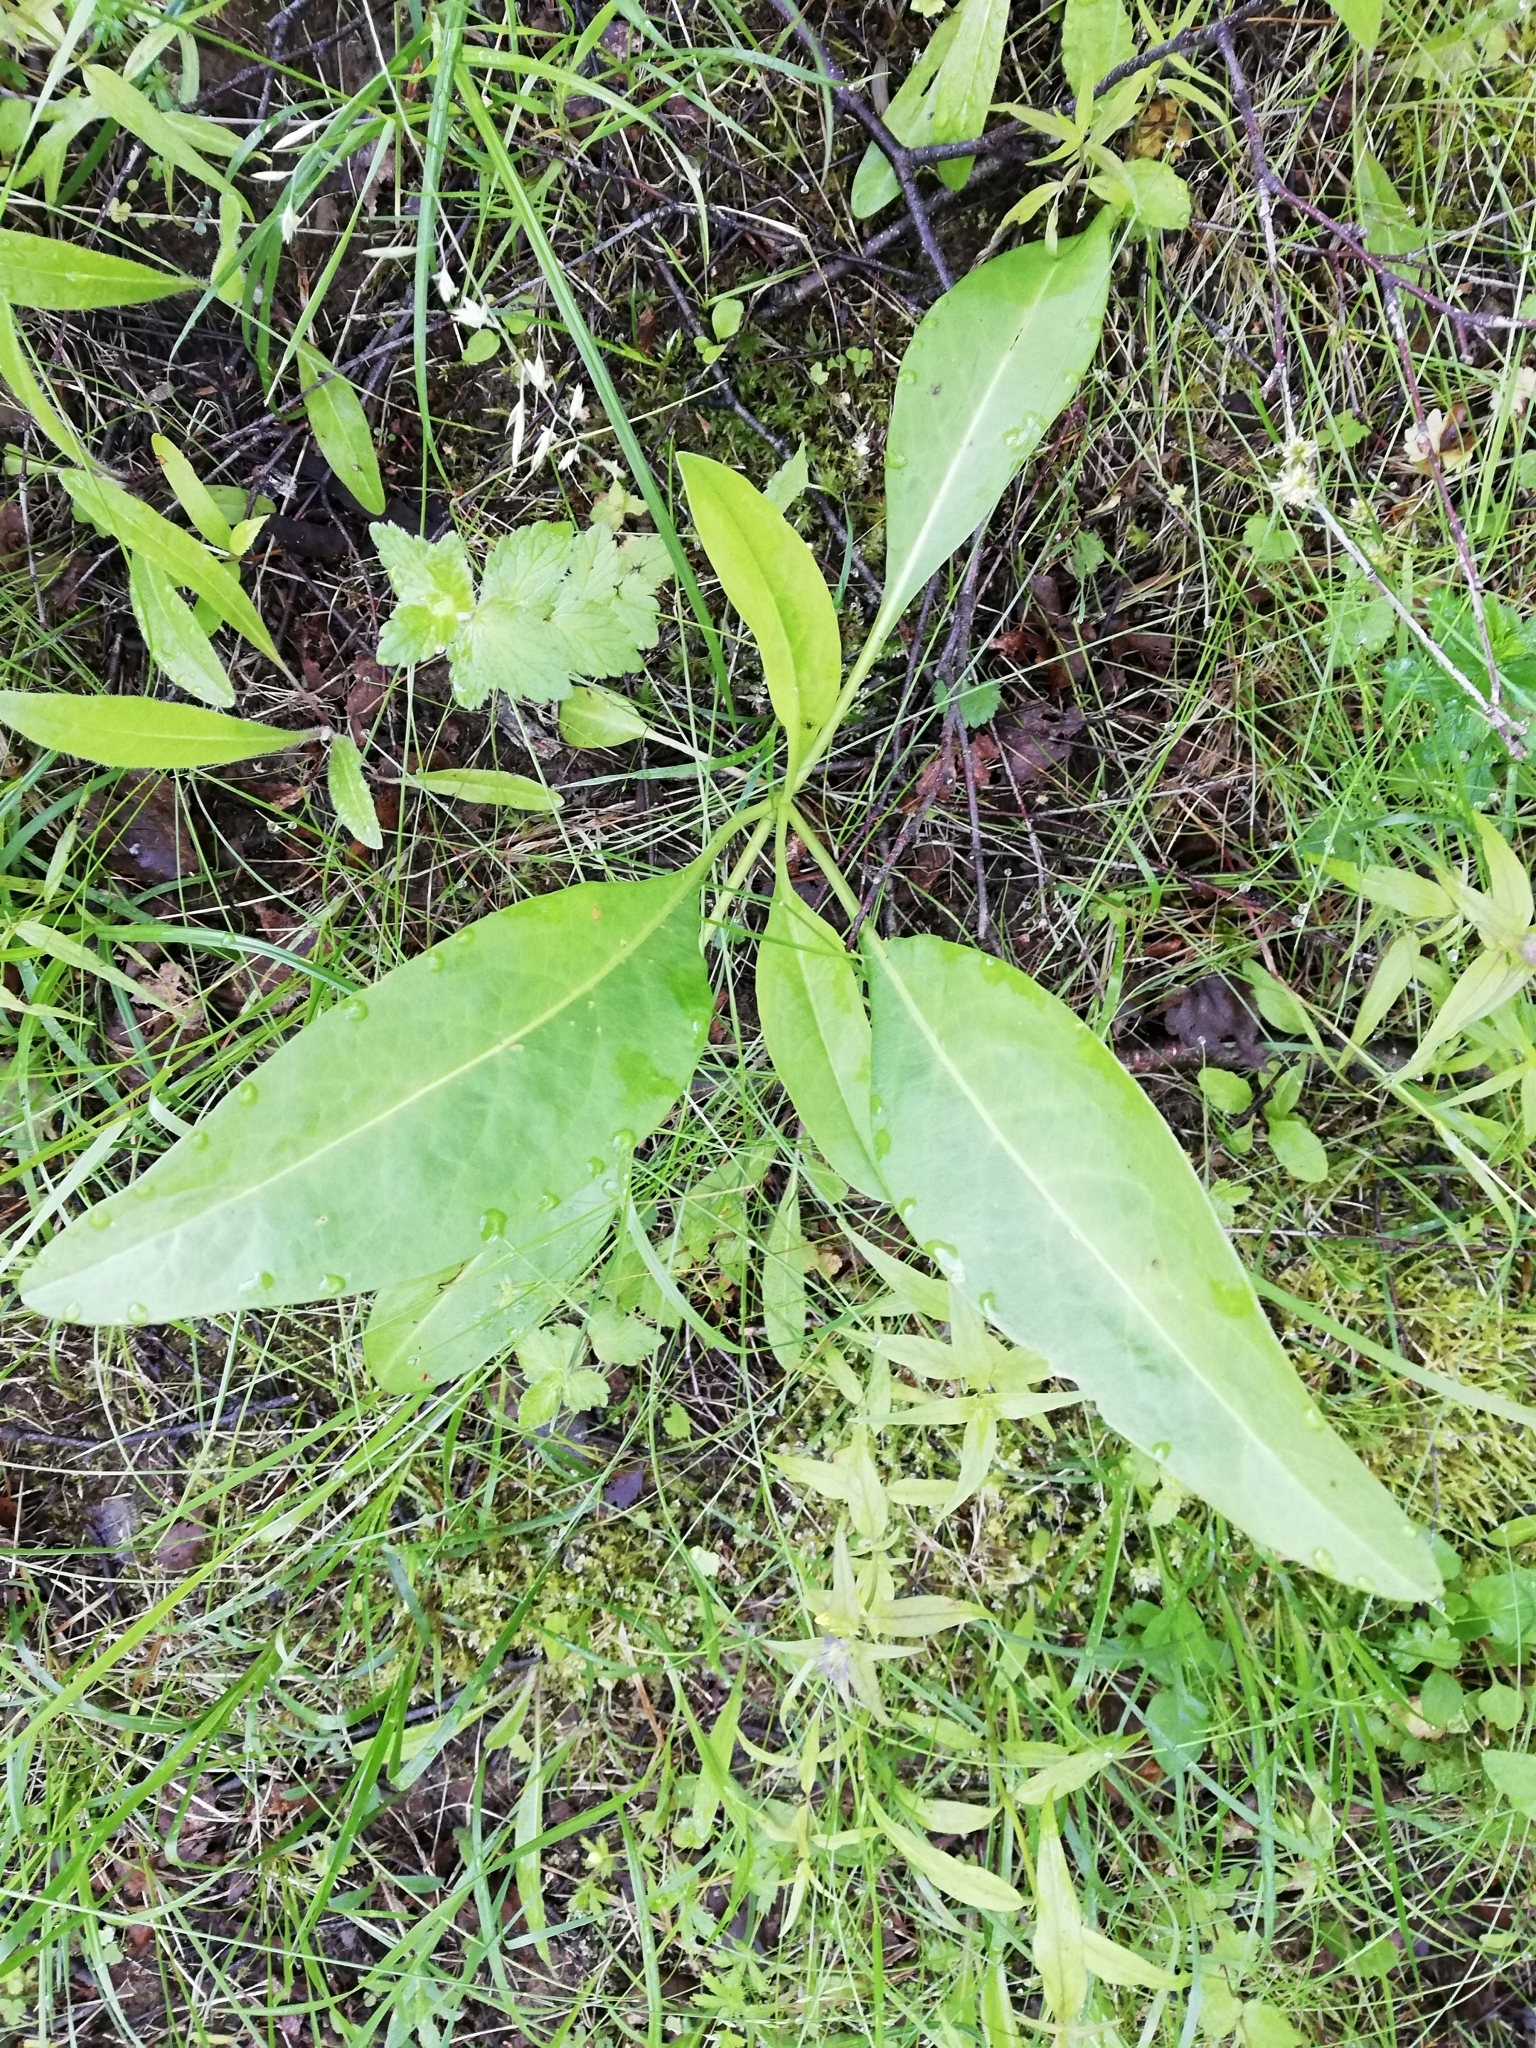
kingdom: Plantae
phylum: Tracheophyta
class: Magnoliopsida
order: Asterales
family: Asteraceae
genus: Solidago
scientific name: Solidago virgaurea
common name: Goldenrod
